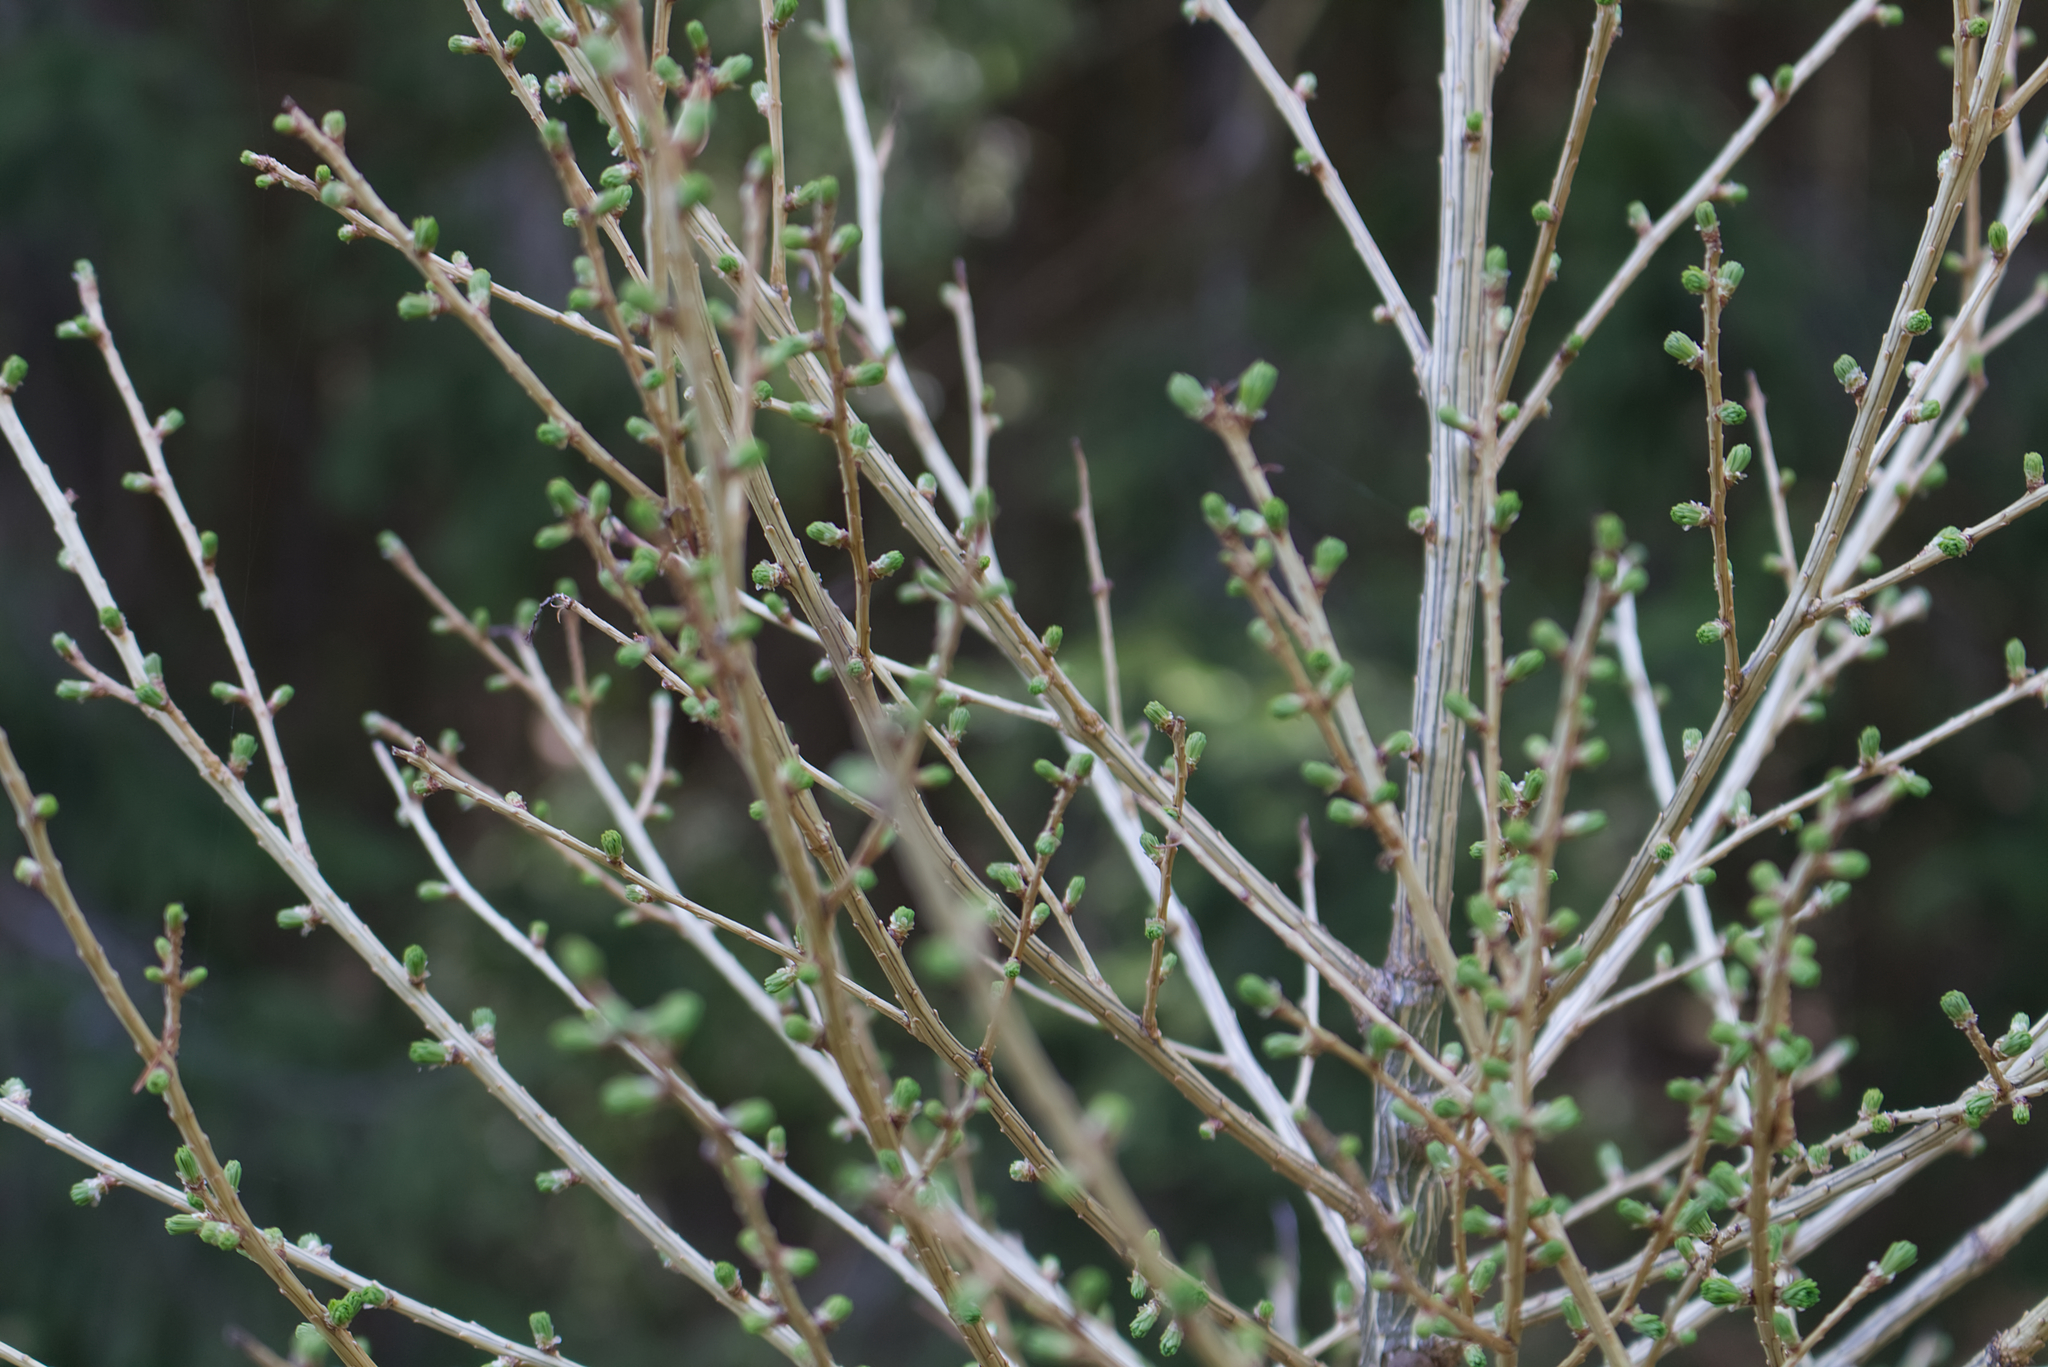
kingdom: Plantae
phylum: Tracheophyta
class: Pinopsida
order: Pinales
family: Pinaceae
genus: Larix
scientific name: Larix decidua
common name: European larch
